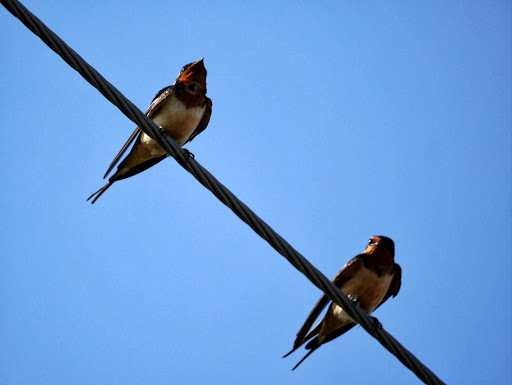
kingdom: Animalia
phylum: Chordata
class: Aves
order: Passeriformes
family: Hirundinidae
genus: Hirundo
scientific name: Hirundo rustica
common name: Barn swallow
